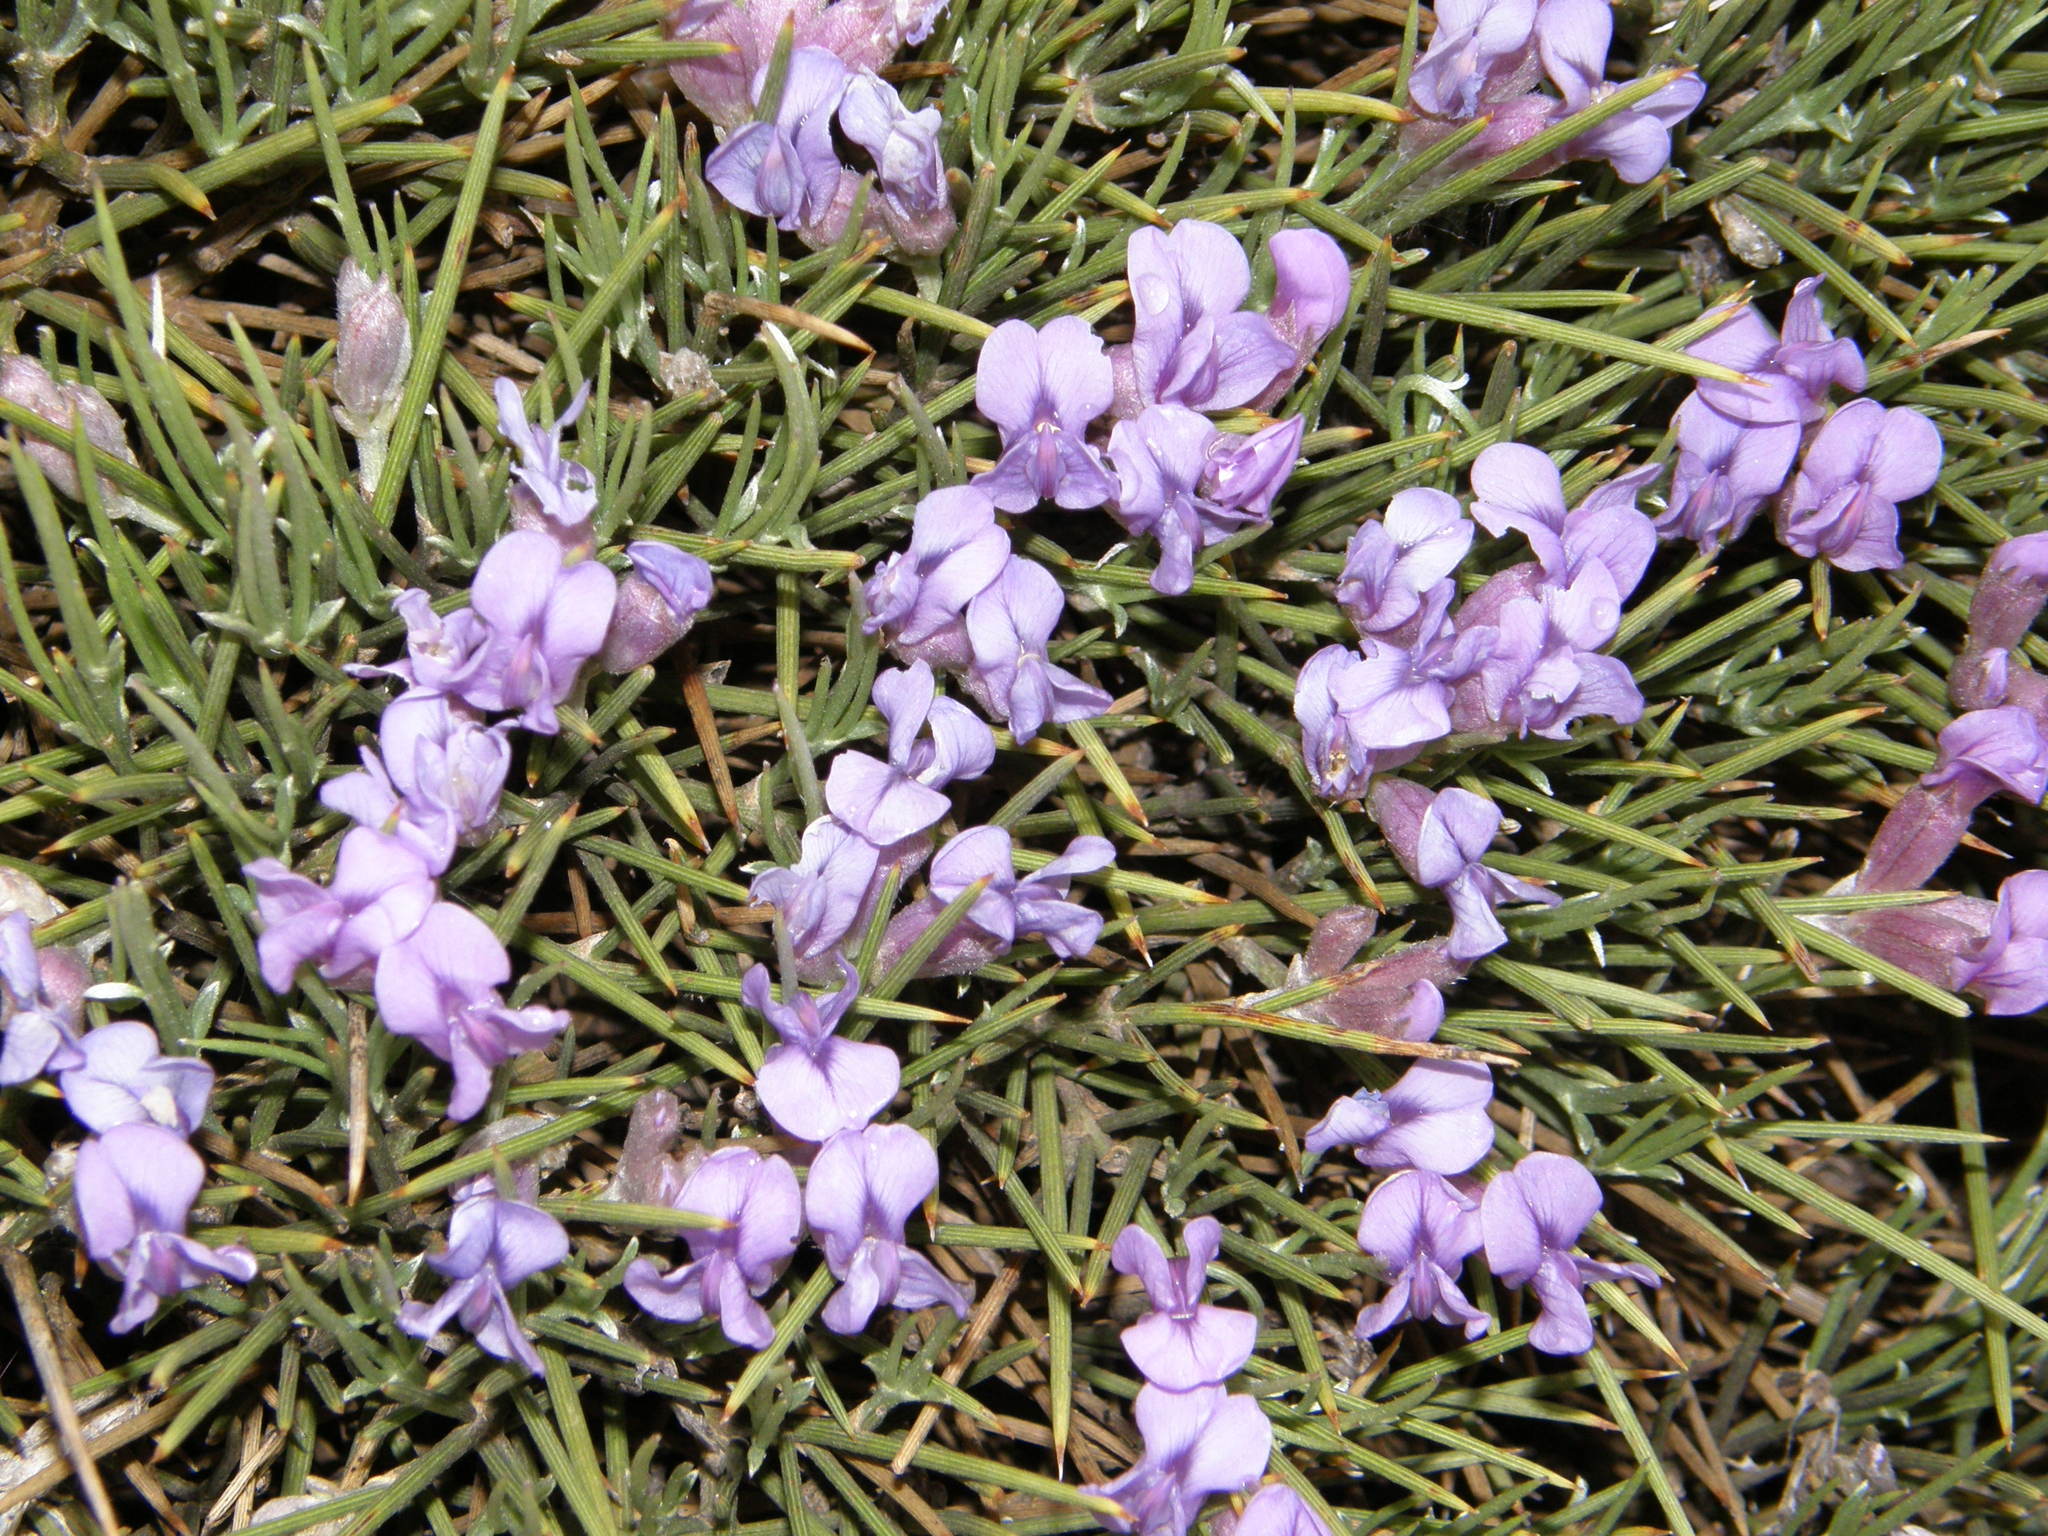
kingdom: Plantae
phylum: Tracheophyta
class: Magnoliopsida
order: Fabales
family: Fabaceae
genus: Erinacea
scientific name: Erinacea anthyllis
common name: Hedgehog-broom
